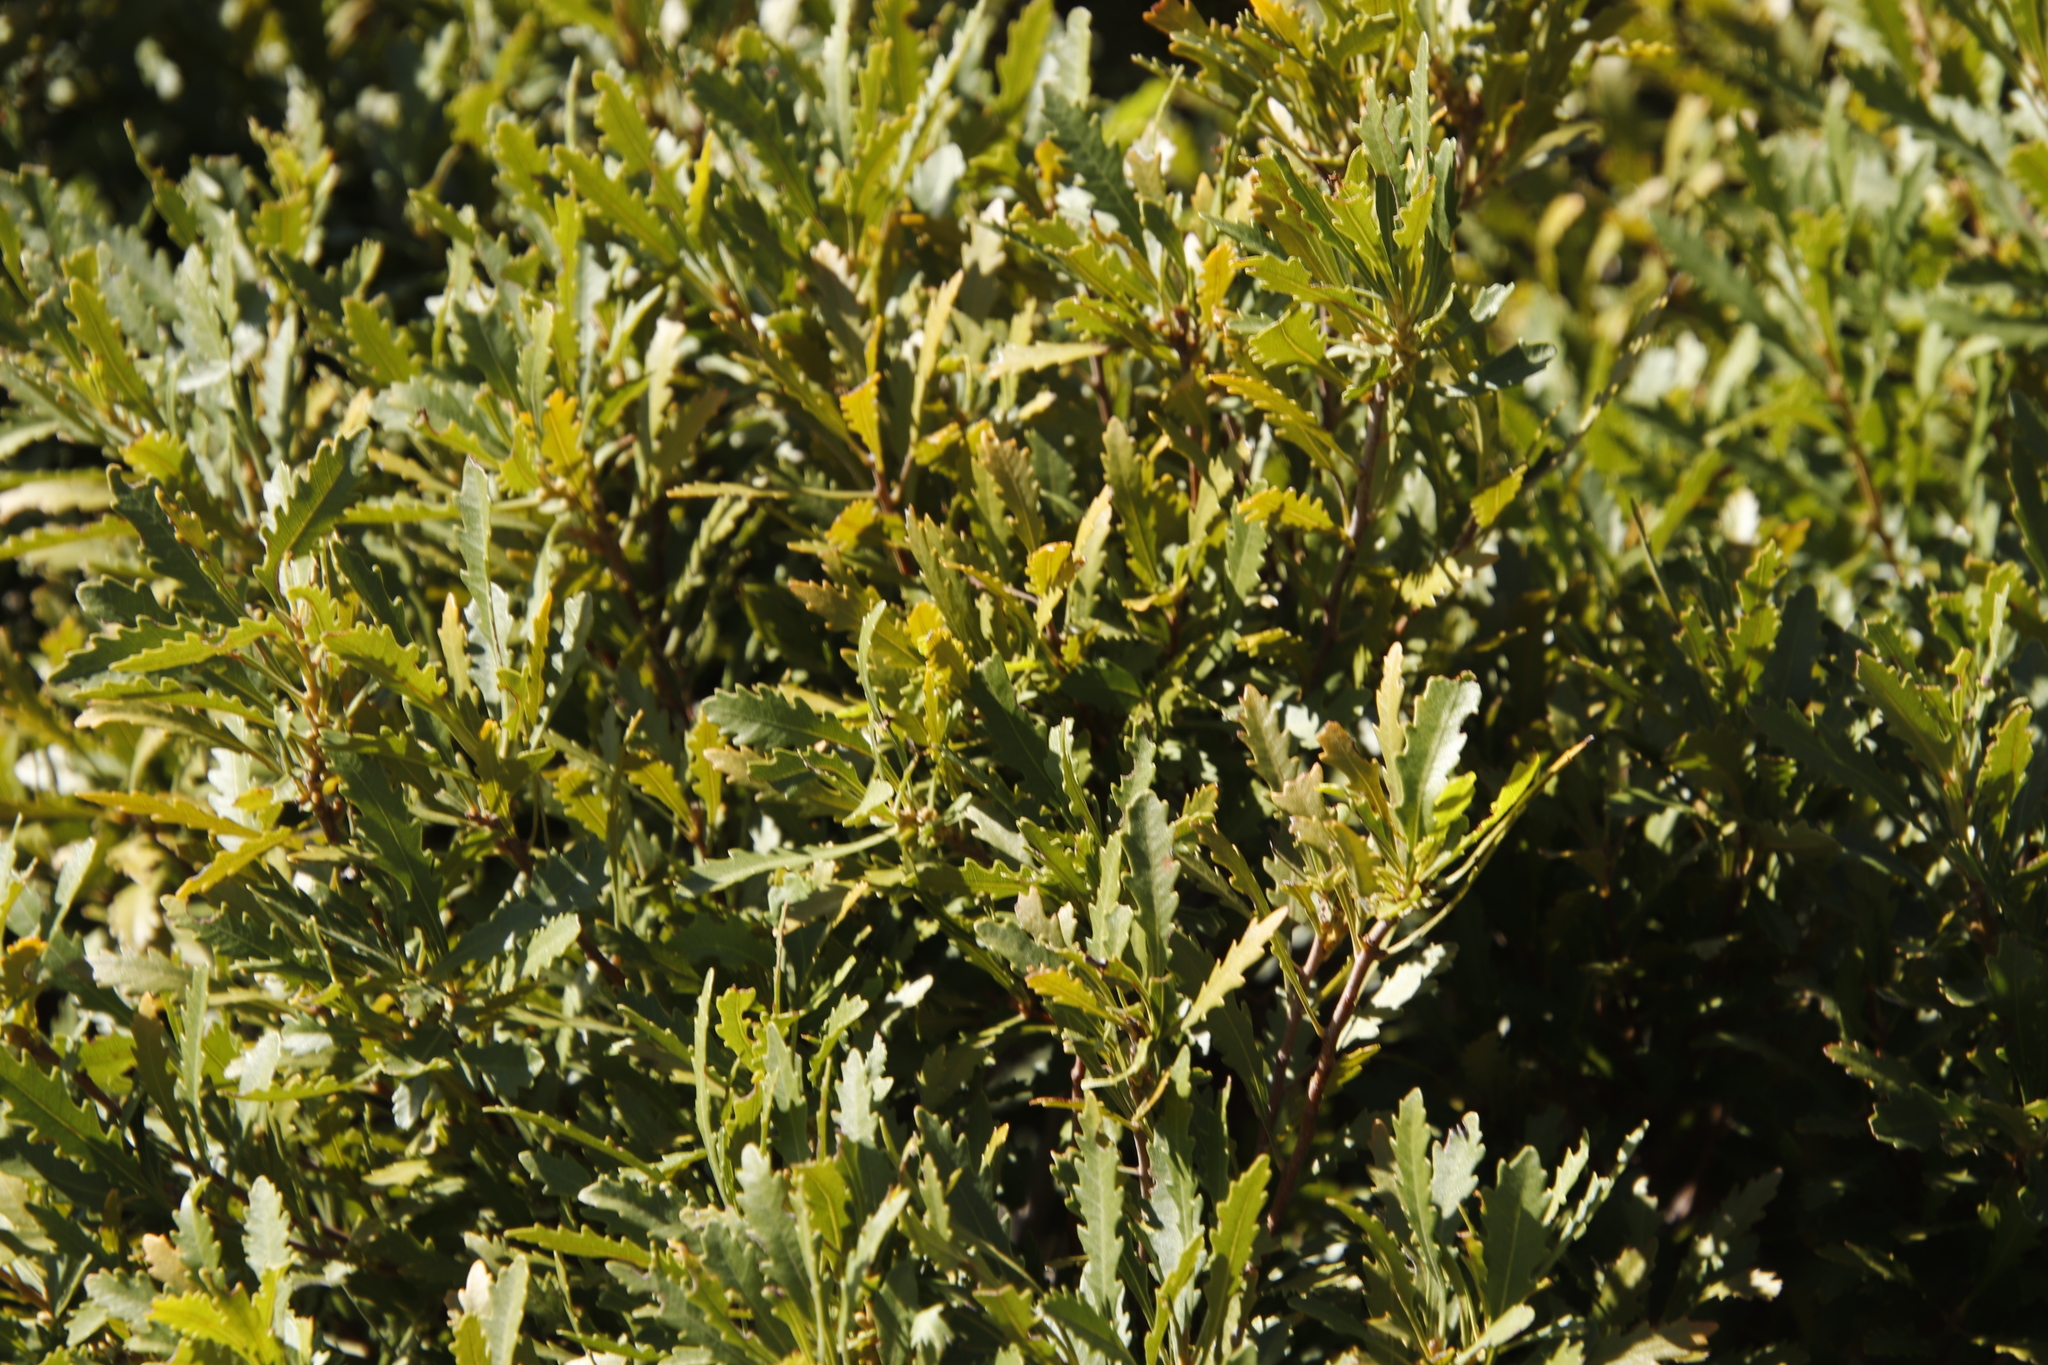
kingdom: Plantae
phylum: Tracheophyta
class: Magnoliopsida
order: Fagales
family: Myricaceae
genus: Morella
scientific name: Morella serrata
